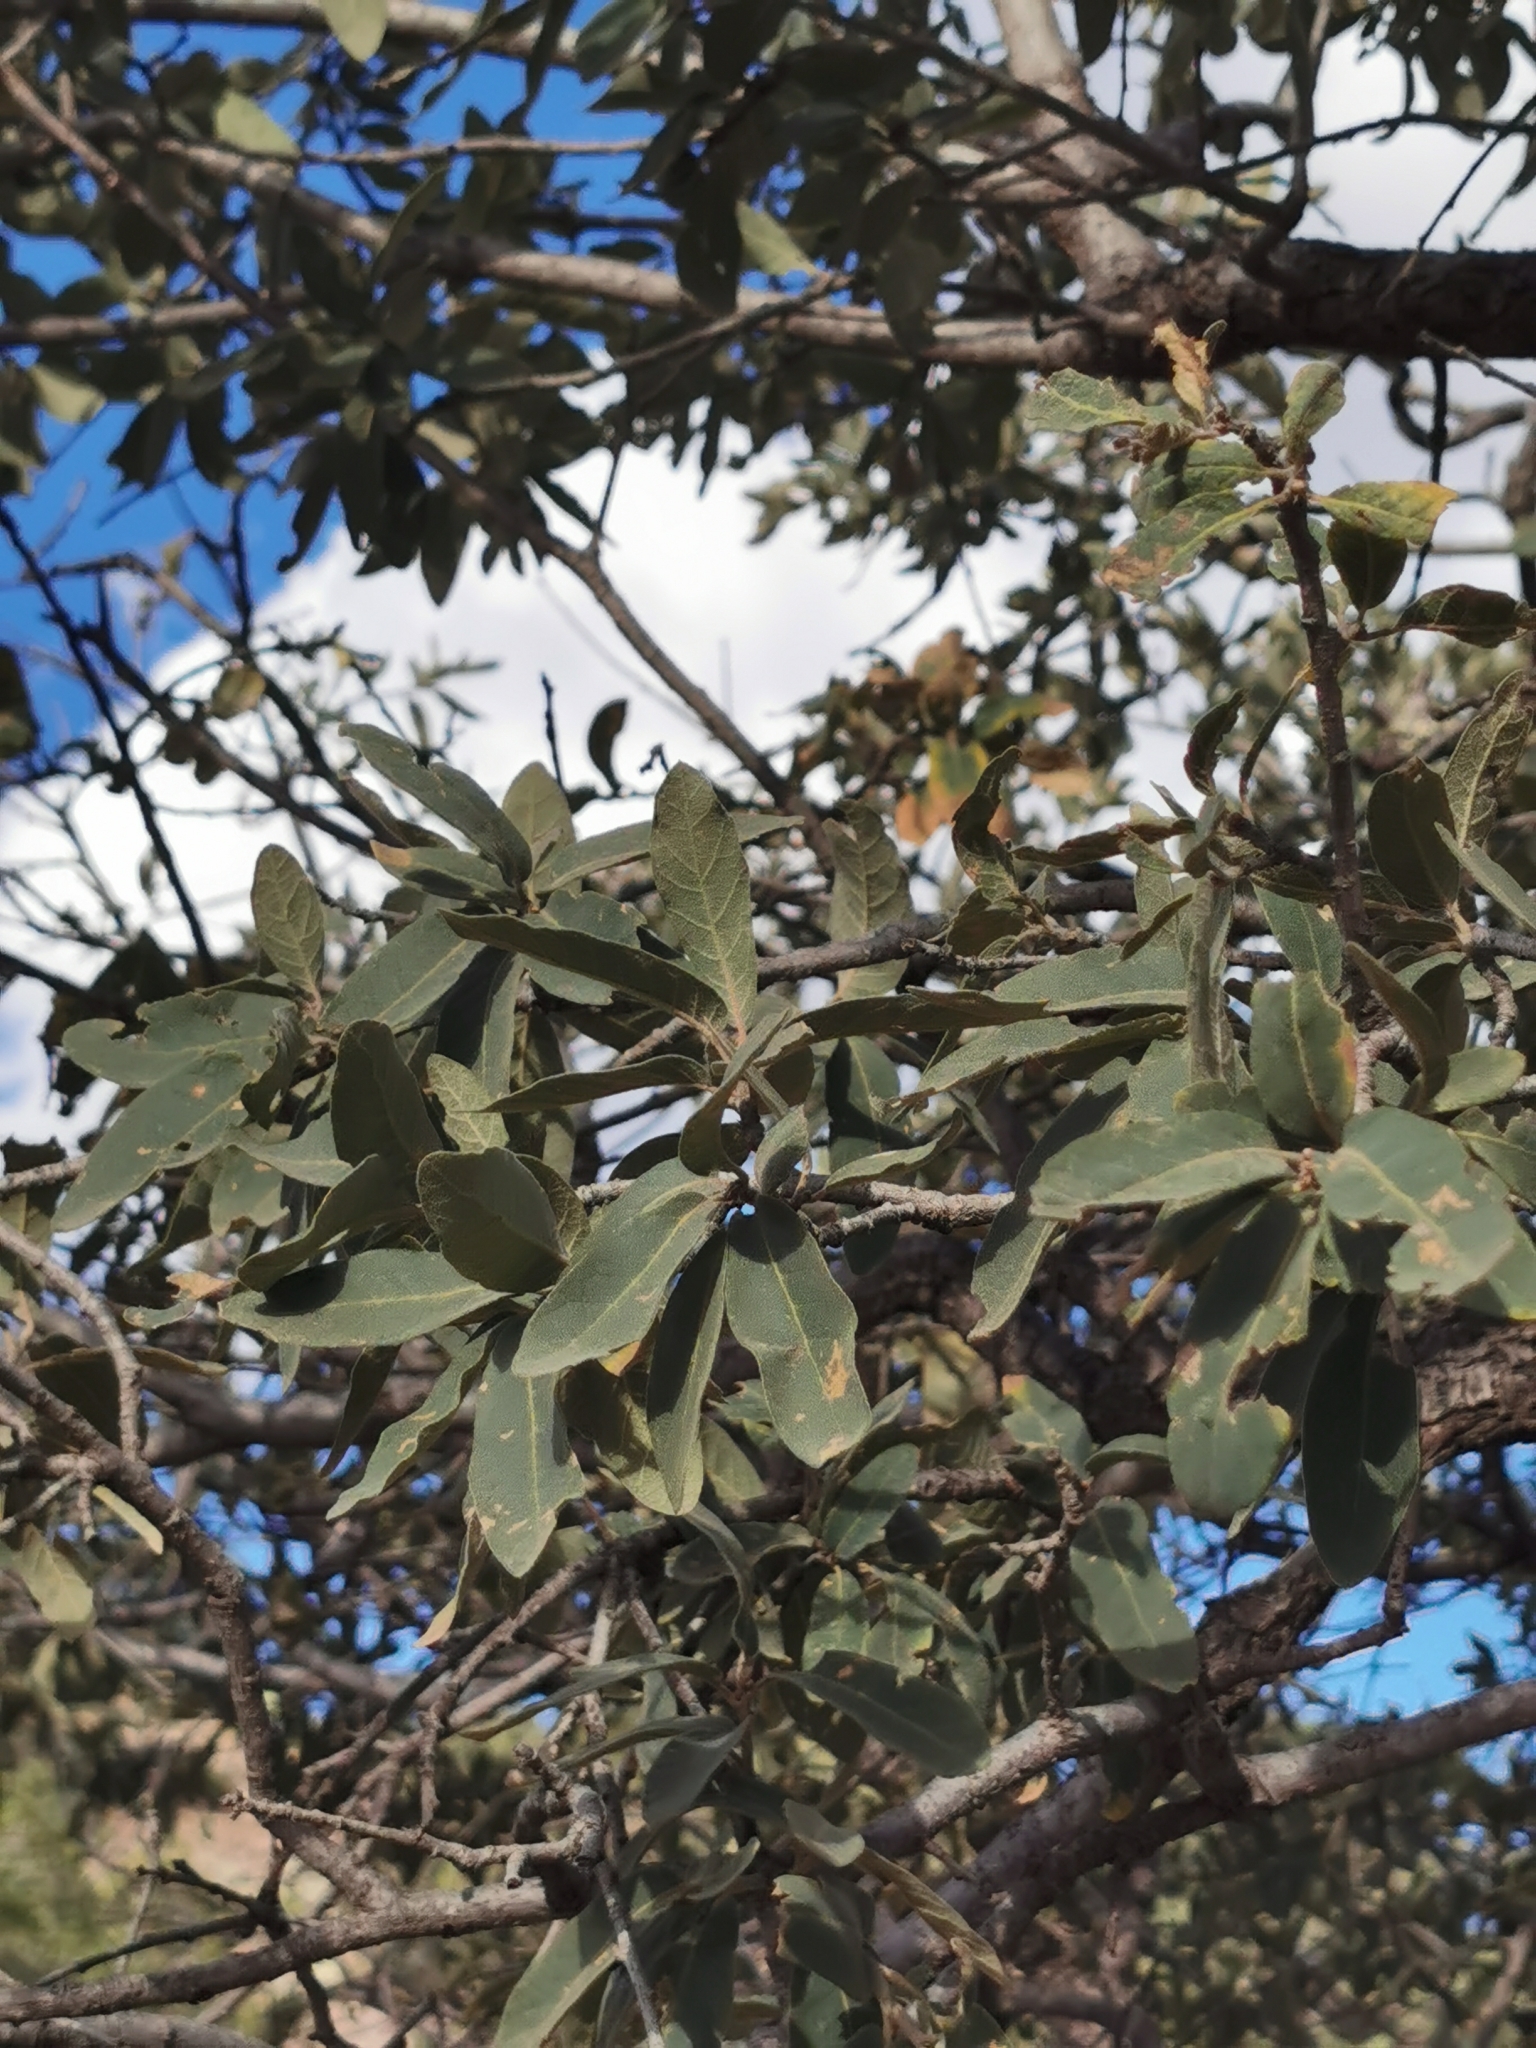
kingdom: Plantae
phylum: Tracheophyta
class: Magnoliopsida
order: Fagales
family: Fagaceae
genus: Quercus
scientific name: Quercus grisea
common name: Gray oak
